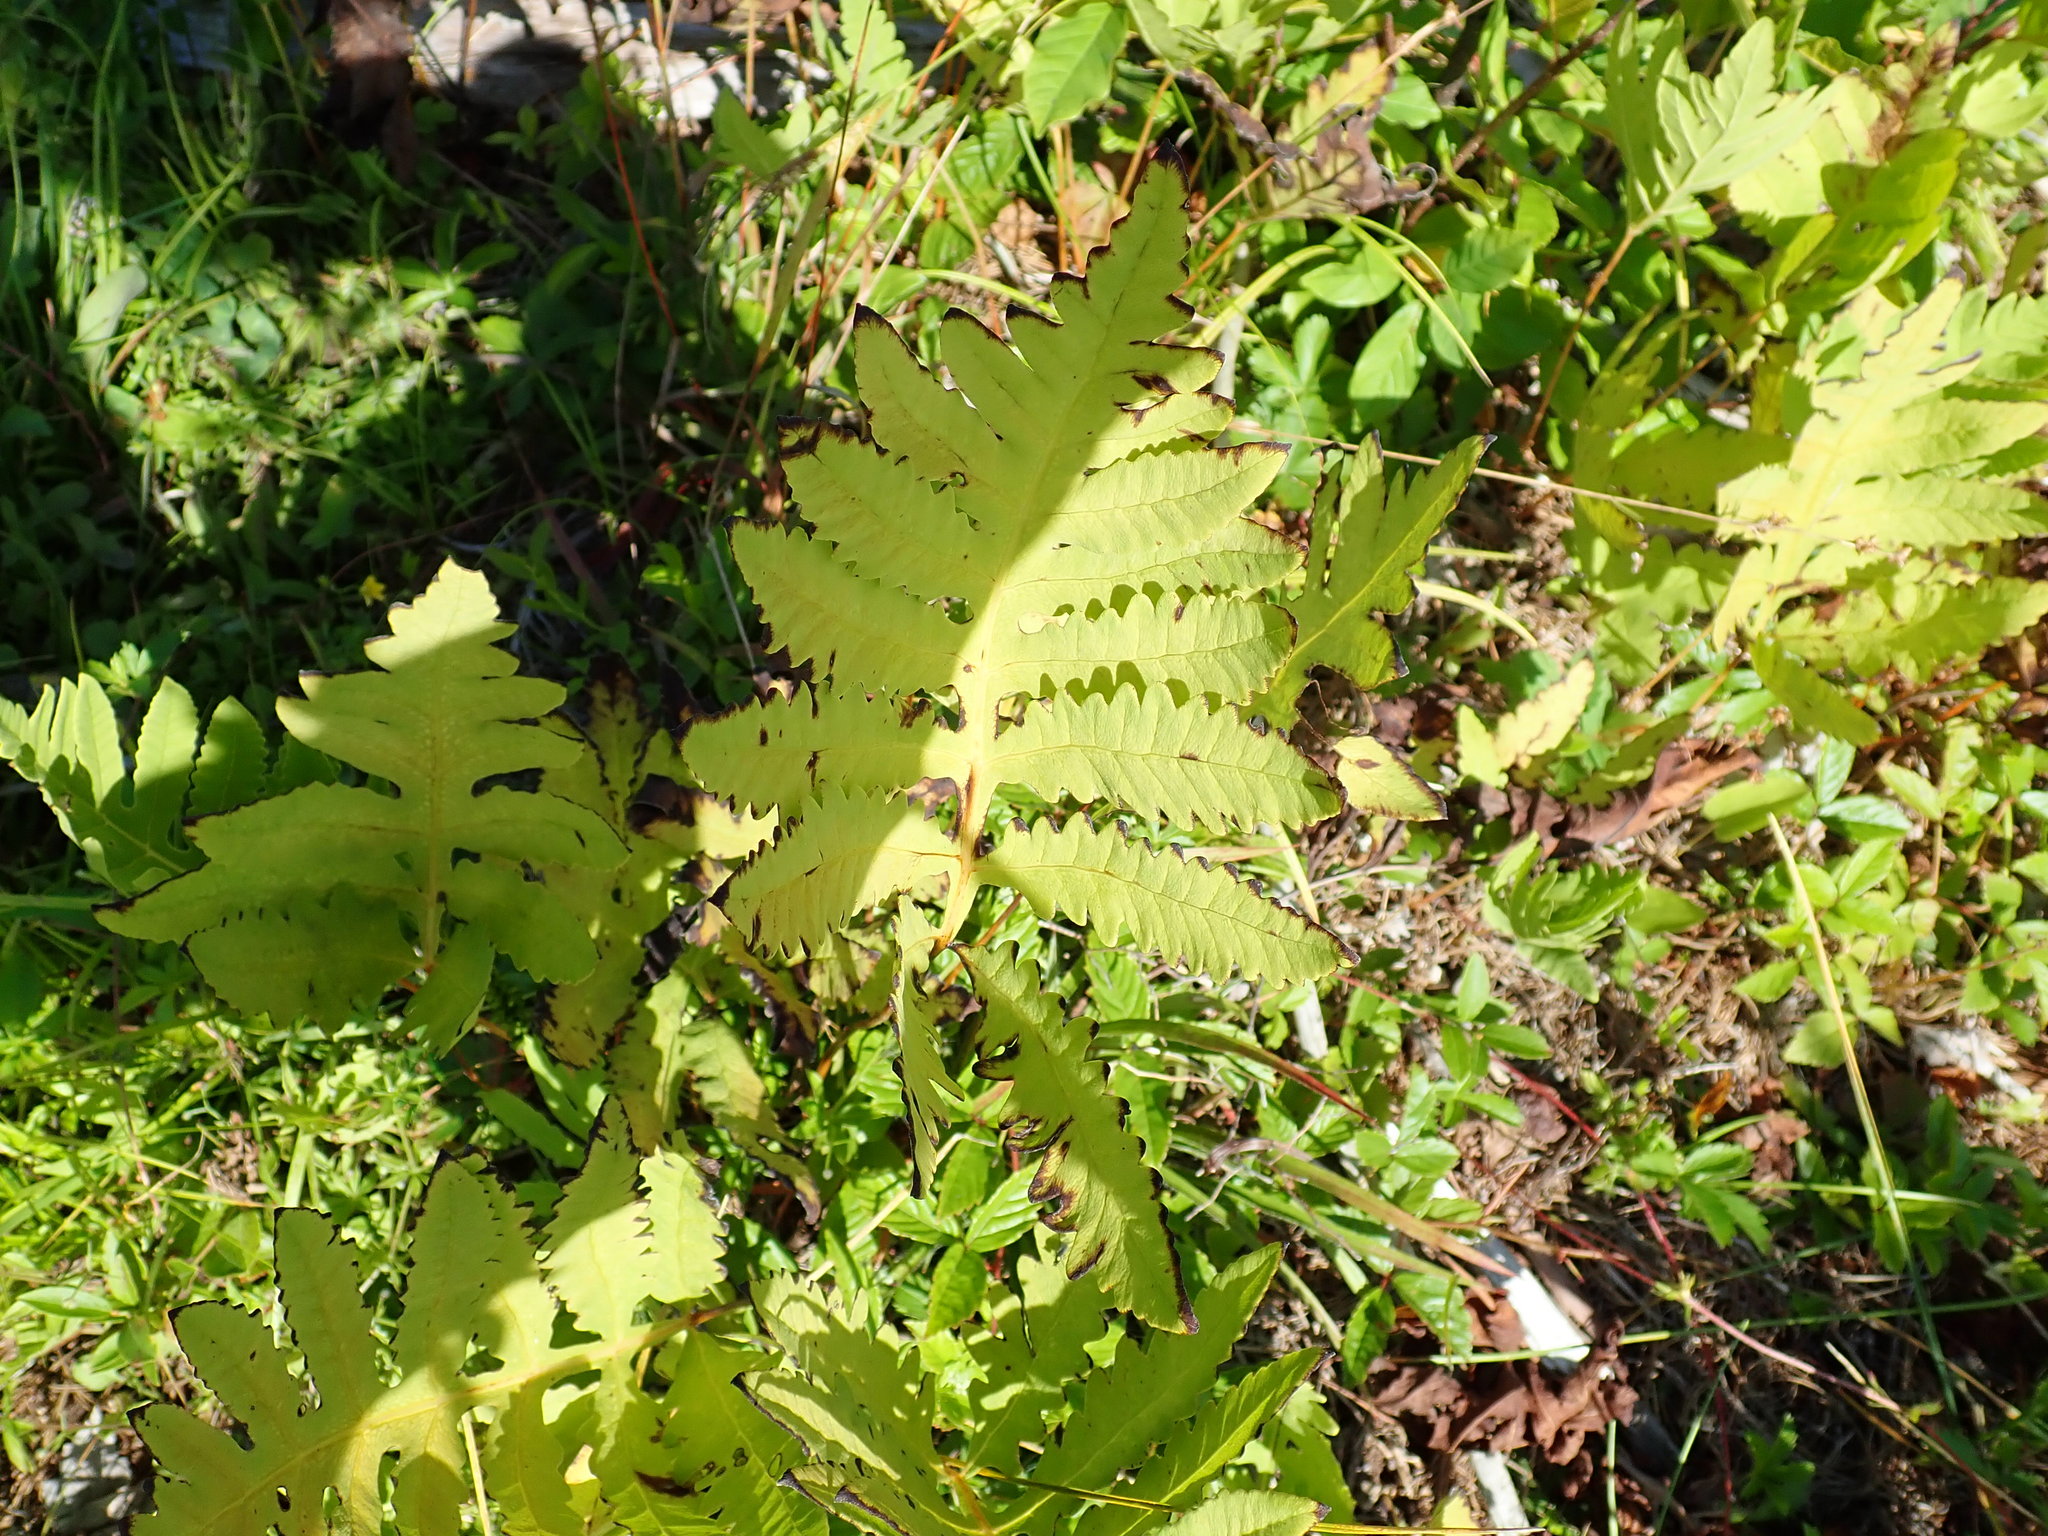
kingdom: Plantae
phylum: Tracheophyta
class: Polypodiopsida
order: Polypodiales
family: Onocleaceae
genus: Onoclea
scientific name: Onoclea sensibilis
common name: Sensitive fern
